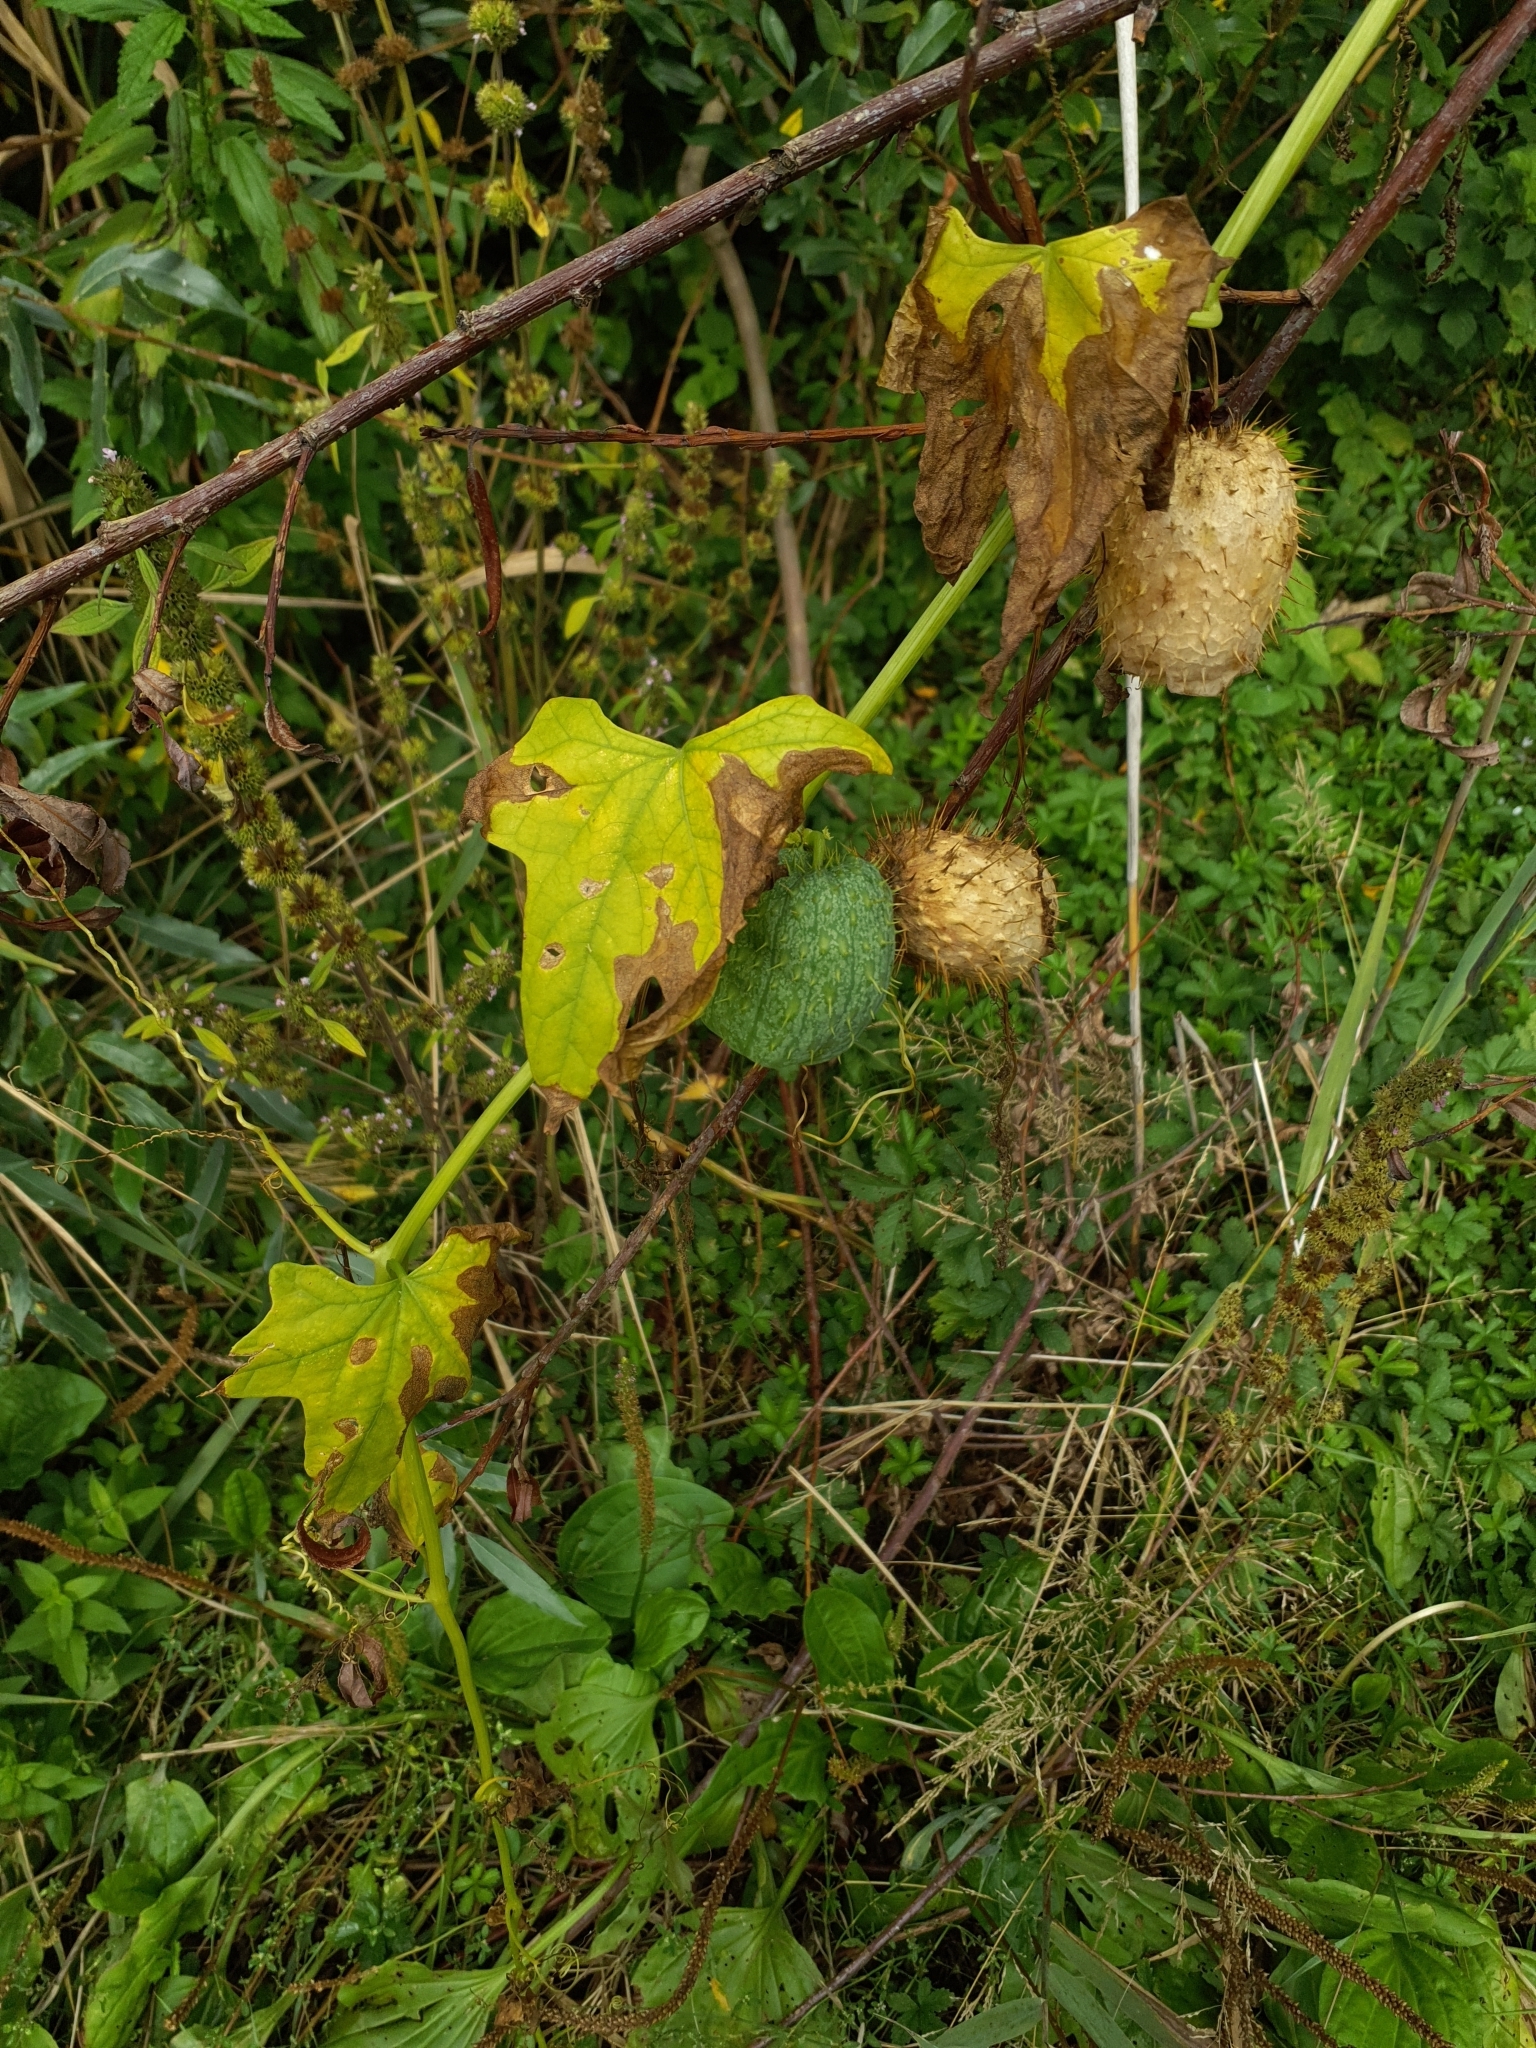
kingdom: Plantae
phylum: Tracheophyta
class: Magnoliopsida
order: Cucurbitales
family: Cucurbitaceae
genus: Echinocystis
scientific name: Echinocystis lobata
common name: Wild cucumber
